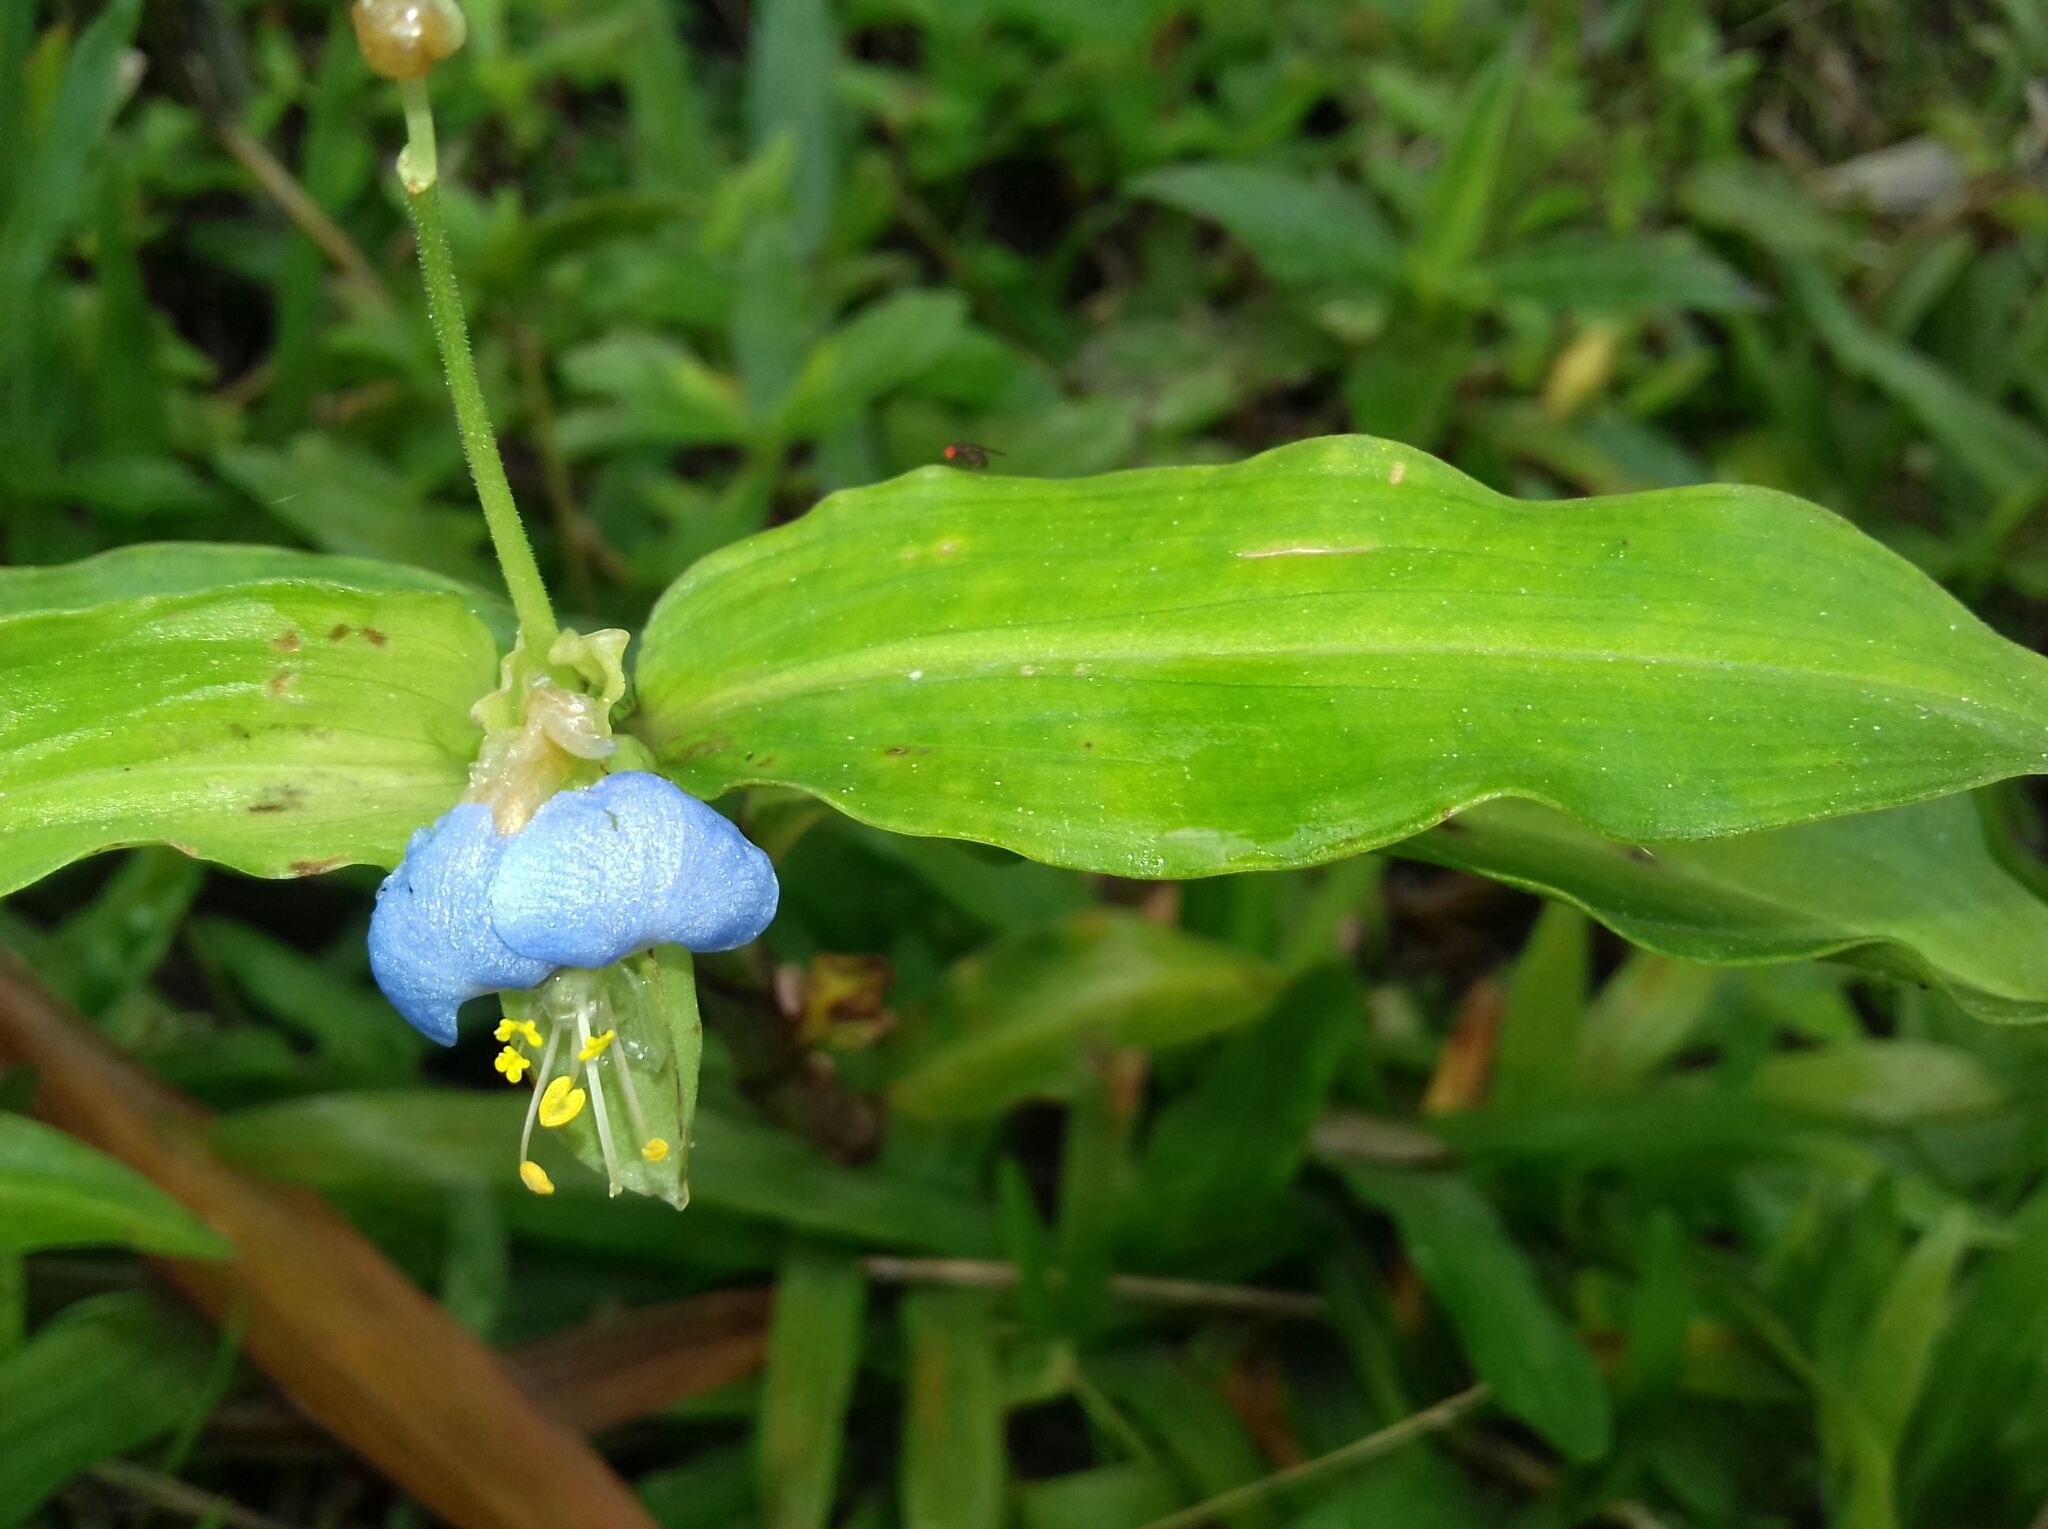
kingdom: Plantae
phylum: Tracheophyta
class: Liliopsida
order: Commelinales
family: Commelinaceae
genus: Commelina
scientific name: Commelina obliqua
